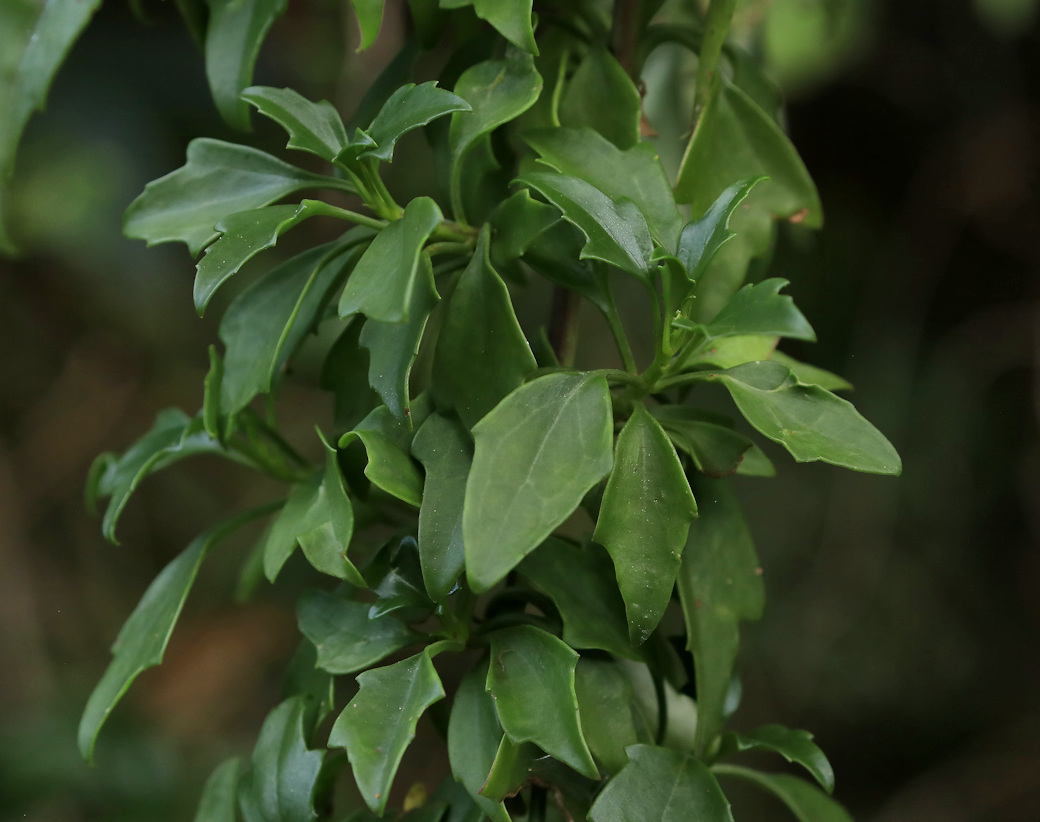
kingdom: Plantae
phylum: Tracheophyta
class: Magnoliopsida
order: Asterales
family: Asteraceae
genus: Senecio
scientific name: Senecio angulatus
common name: Climbing groundsel
